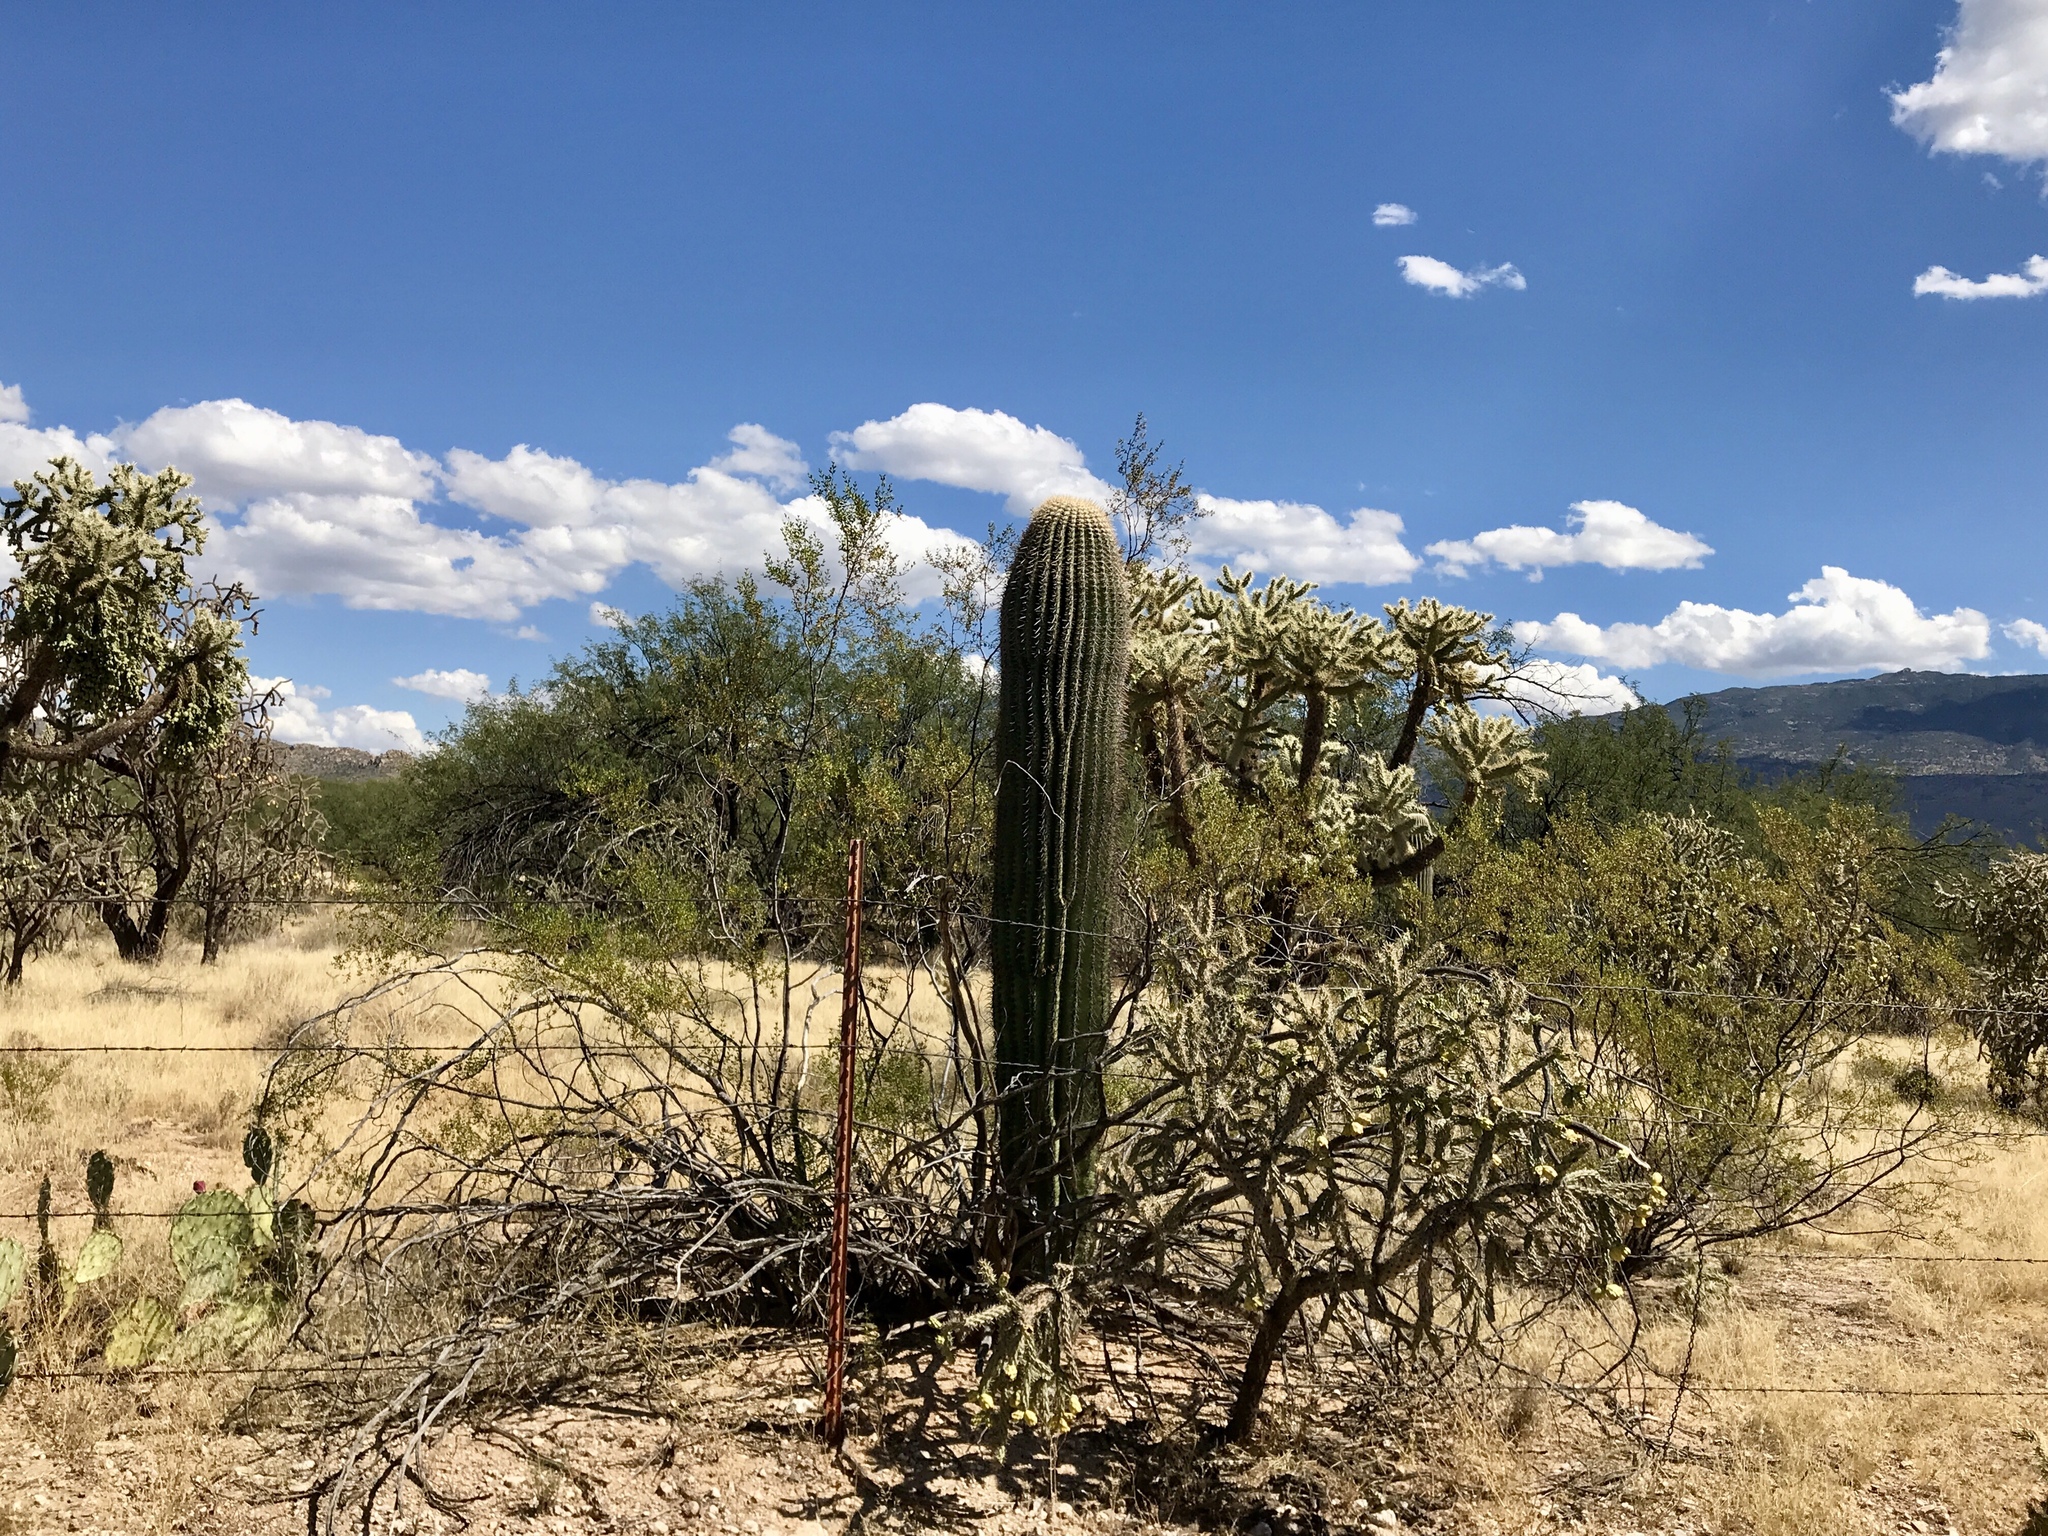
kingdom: Plantae
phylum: Tracheophyta
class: Magnoliopsida
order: Caryophyllales
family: Cactaceae
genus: Carnegiea
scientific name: Carnegiea gigantea
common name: Saguaro
